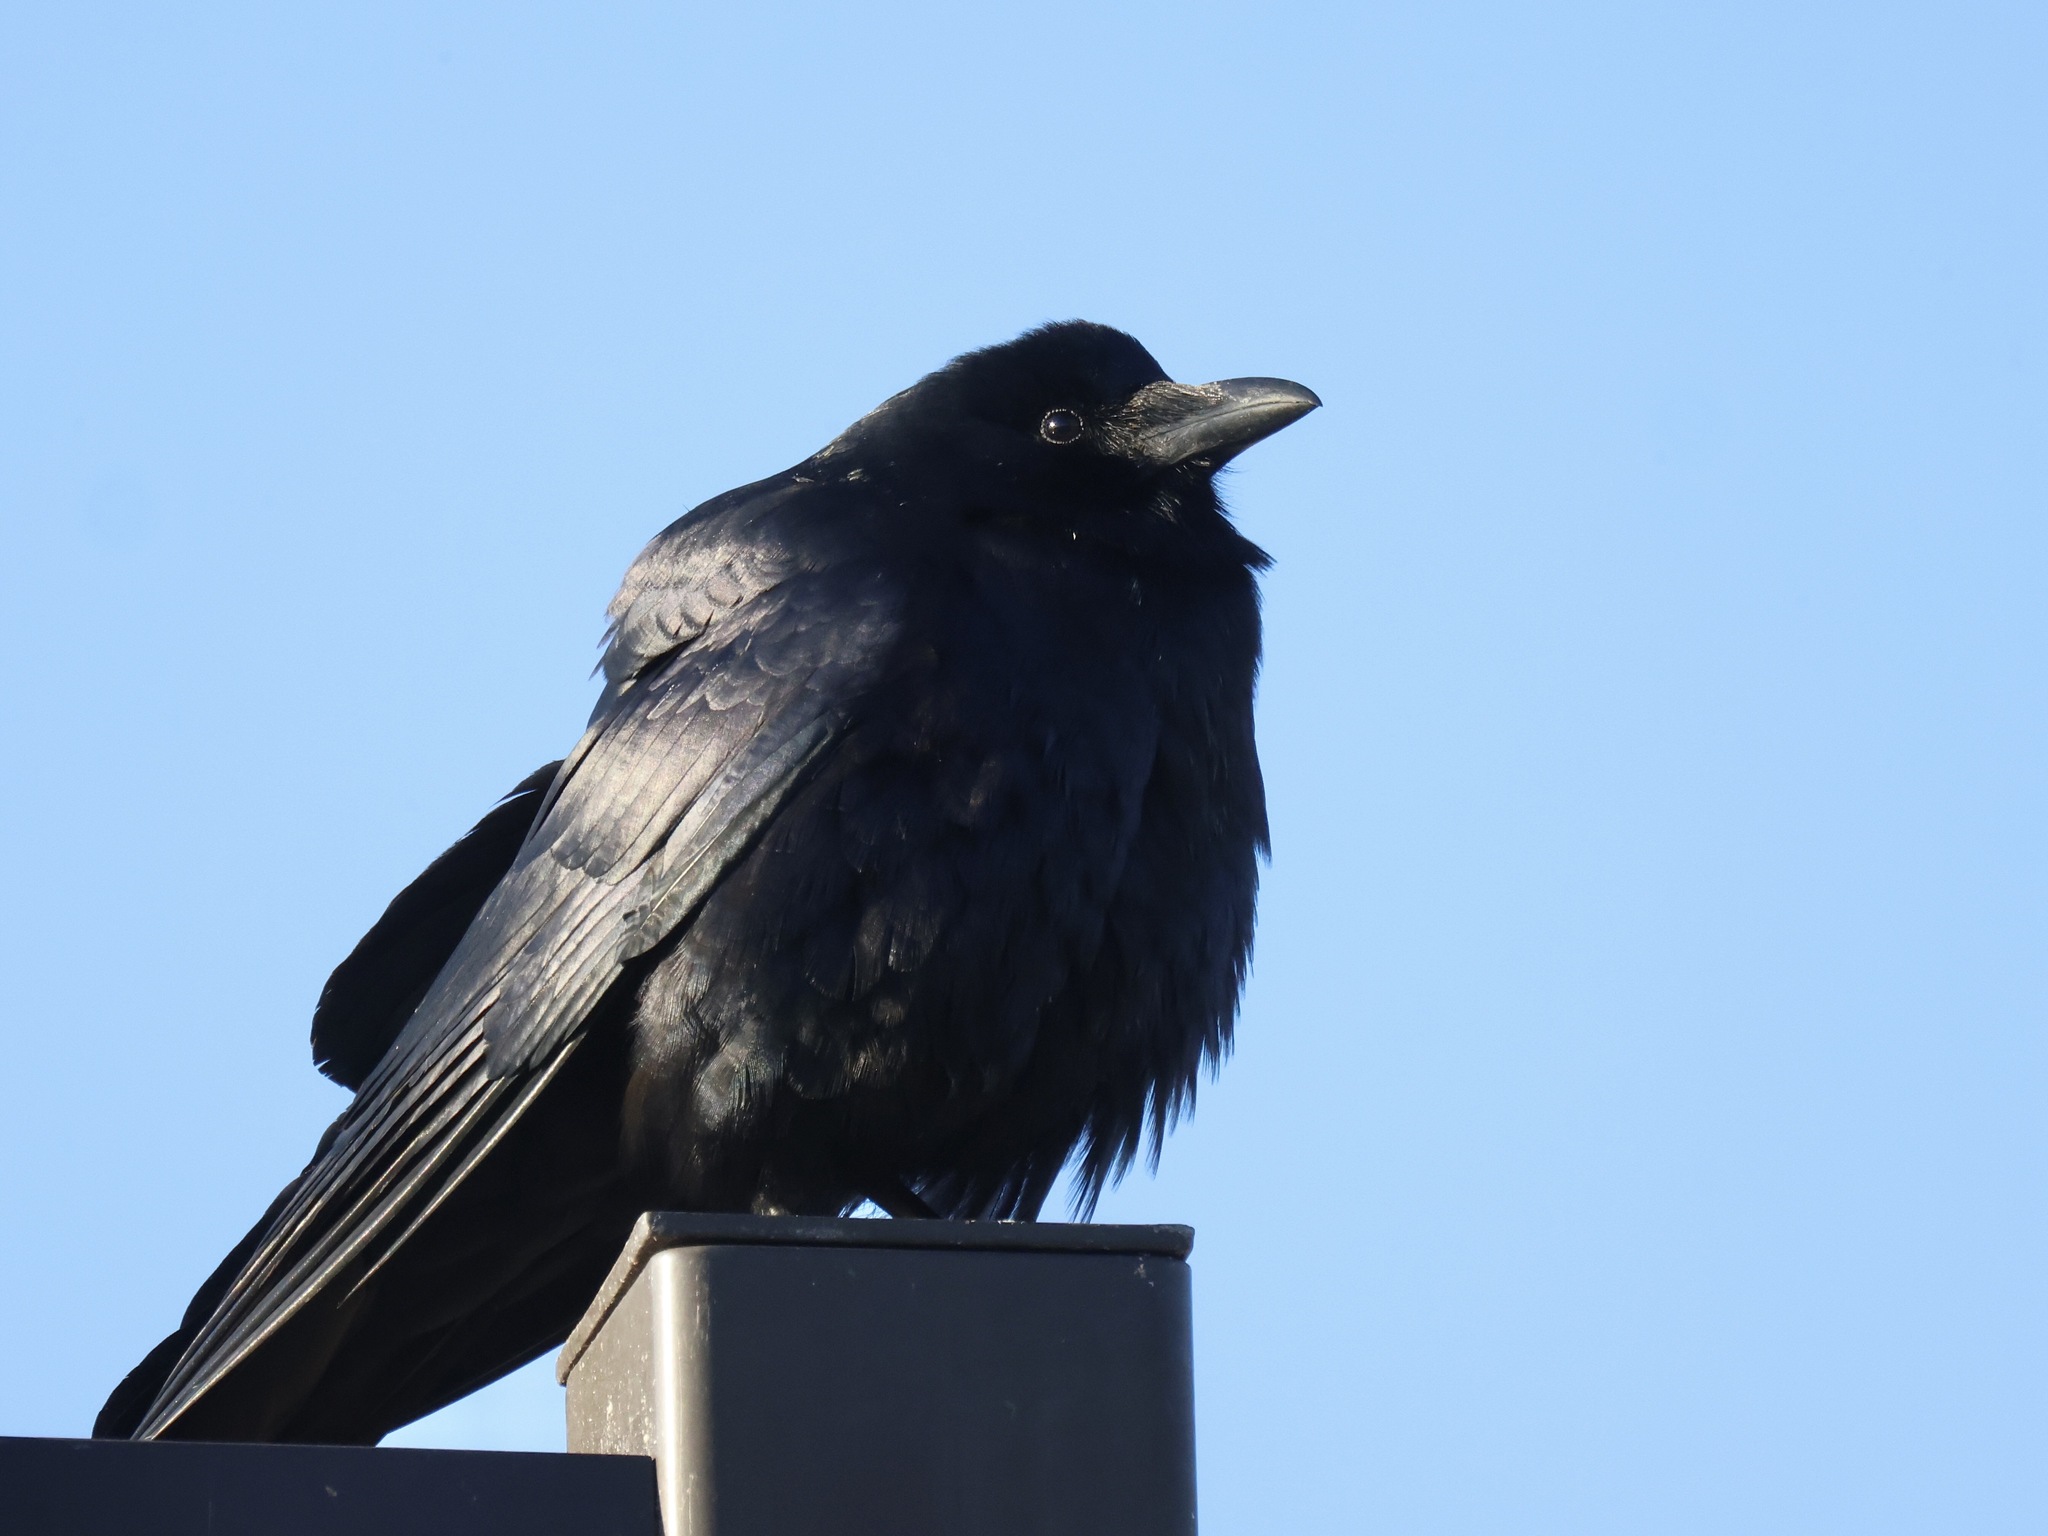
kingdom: Animalia
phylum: Chordata
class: Aves
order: Passeriformes
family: Corvidae
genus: Corvus
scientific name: Corvus ossifragus
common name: Fish crow
